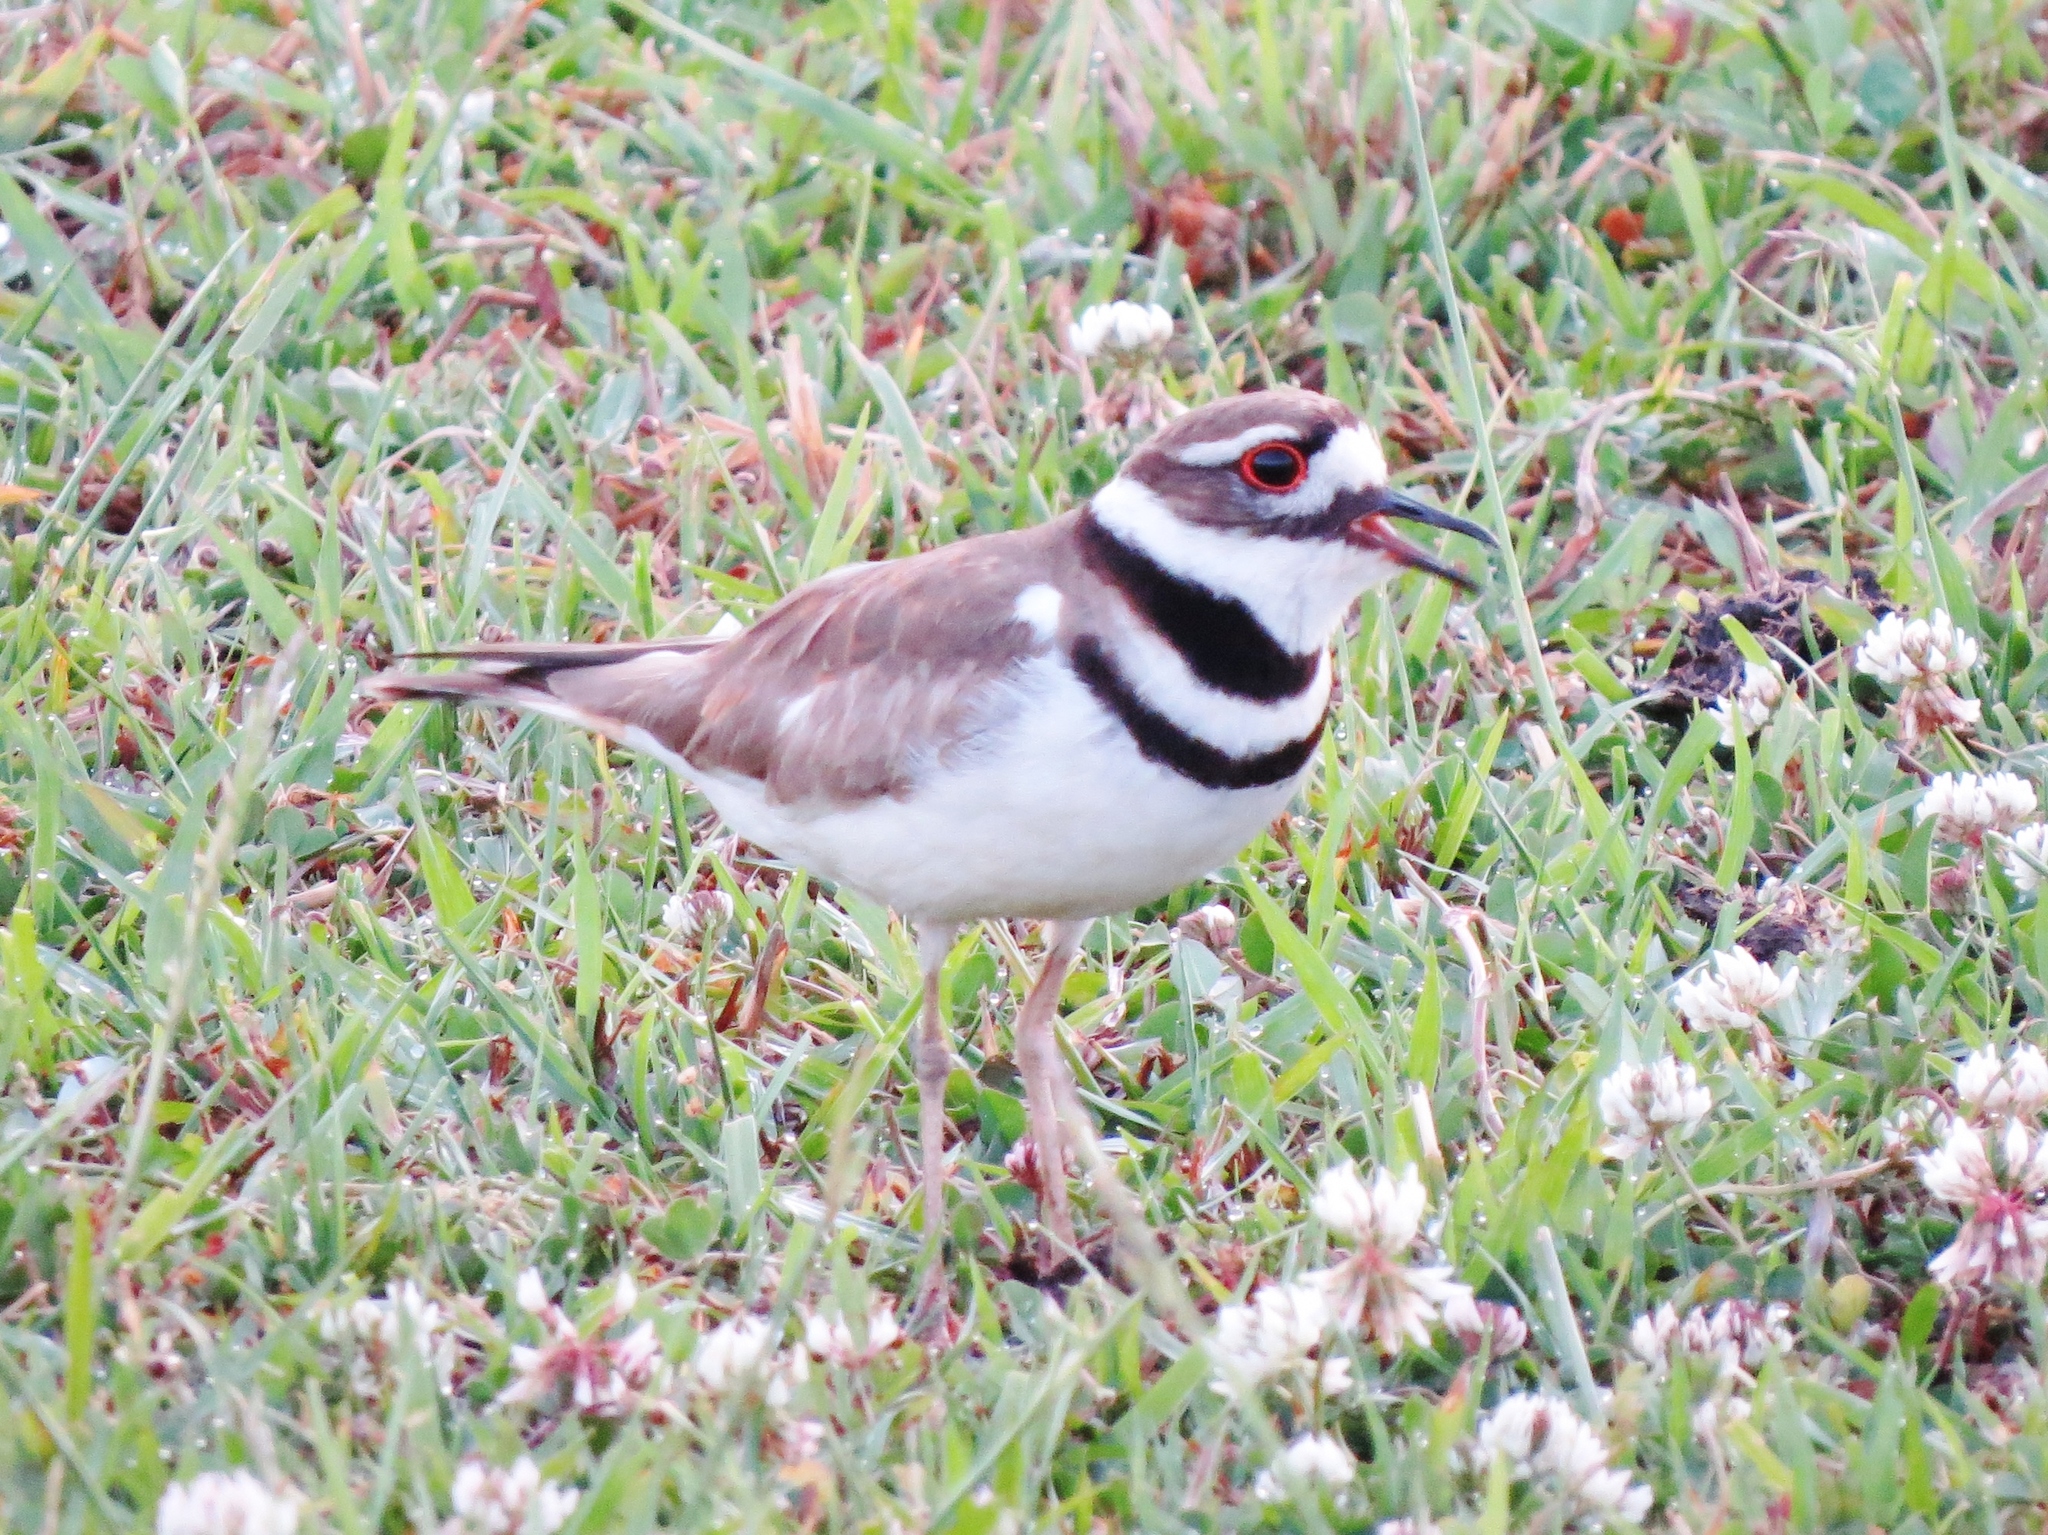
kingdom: Animalia
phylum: Chordata
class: Aves
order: Charadriiformes
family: Charadriidae
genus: Charadrius
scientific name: Charadrius vociferus
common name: Killdeer
